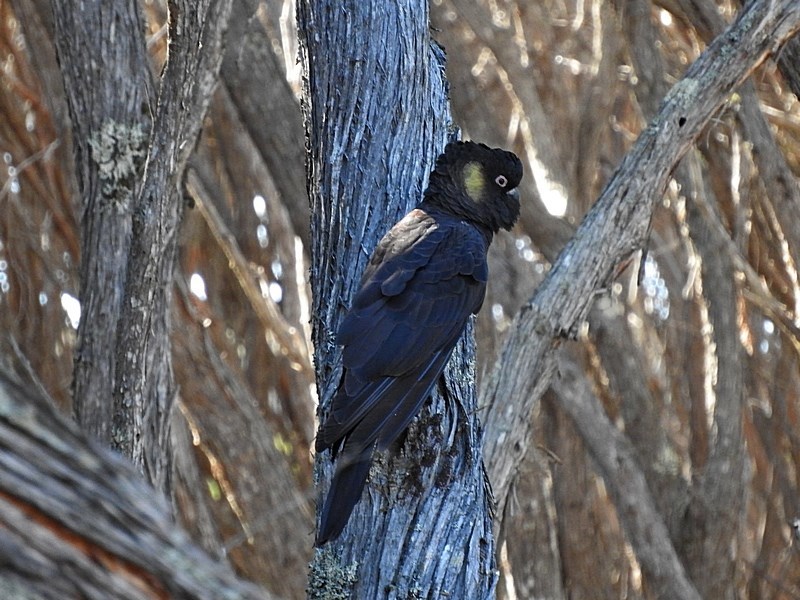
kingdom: Animalia
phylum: Chordata
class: Aves
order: Psittaciformes
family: Cacatuidae
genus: Zanda
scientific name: Zanda funerea
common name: Yellow-tailed black-cockatoo
